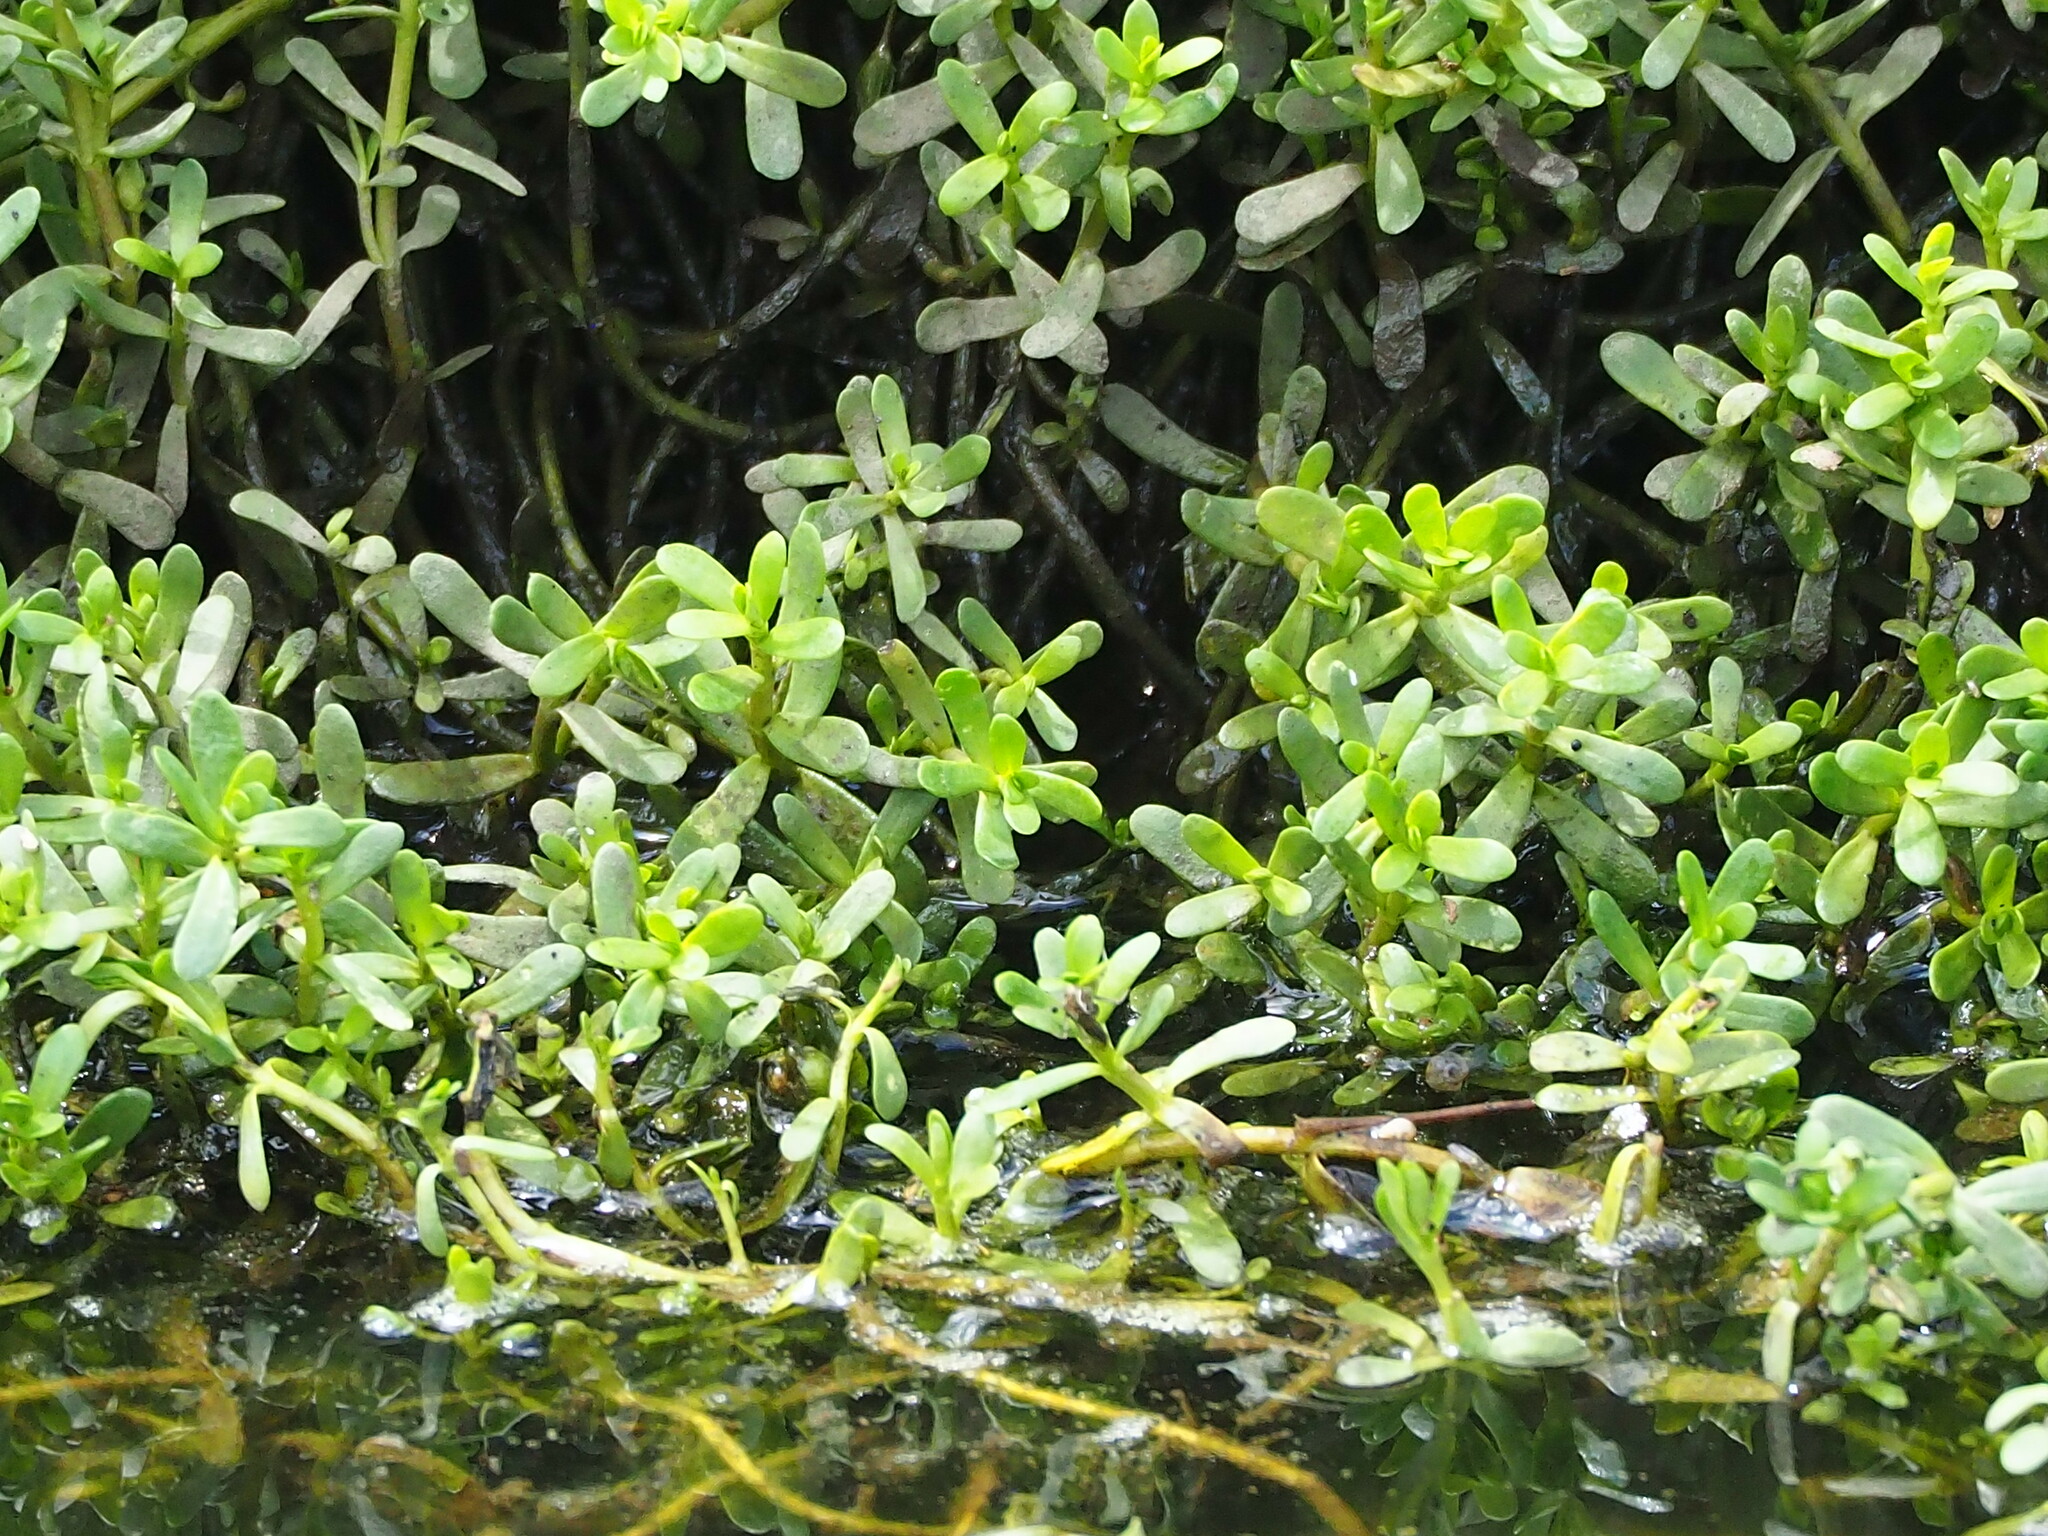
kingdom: Plantae
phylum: Tracheophyta
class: Magnoliopsida
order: Lamiales
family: Plantaginaceae
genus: Bacopa
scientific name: Bacopa monnieri
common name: Indian-pennywort
